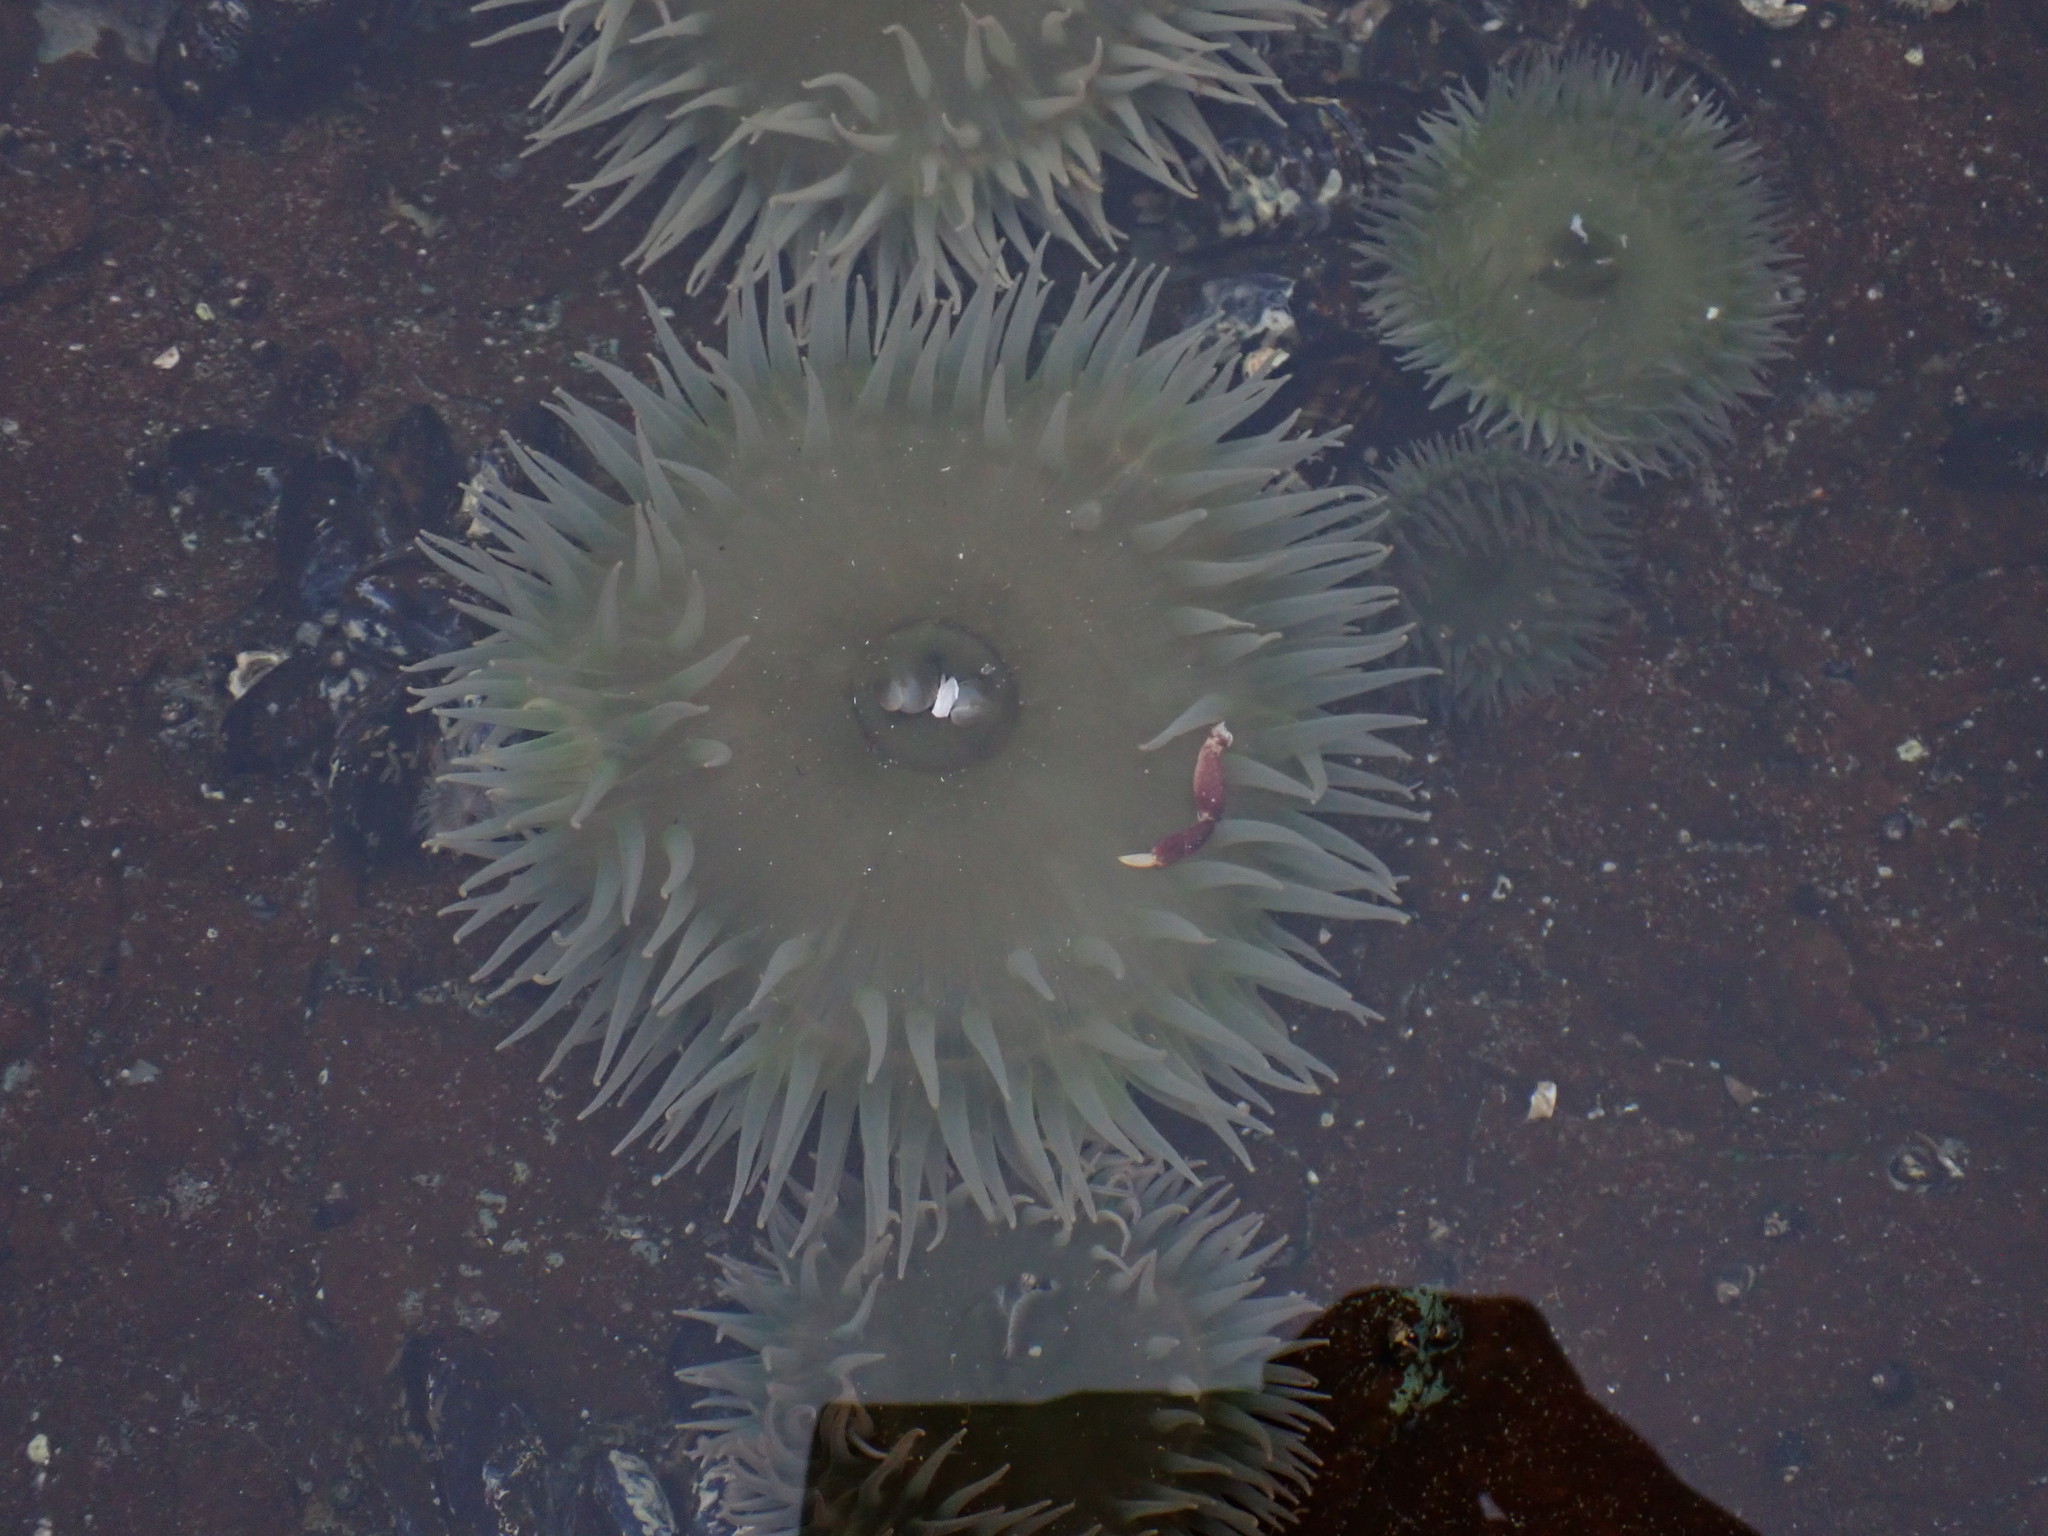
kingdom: Animalia
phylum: Cnidaria
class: Anthozoa
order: Actiniaria
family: Actiniidae
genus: Anthopleura
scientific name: Anthopleura xanthogrammica
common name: Giant green anemone
